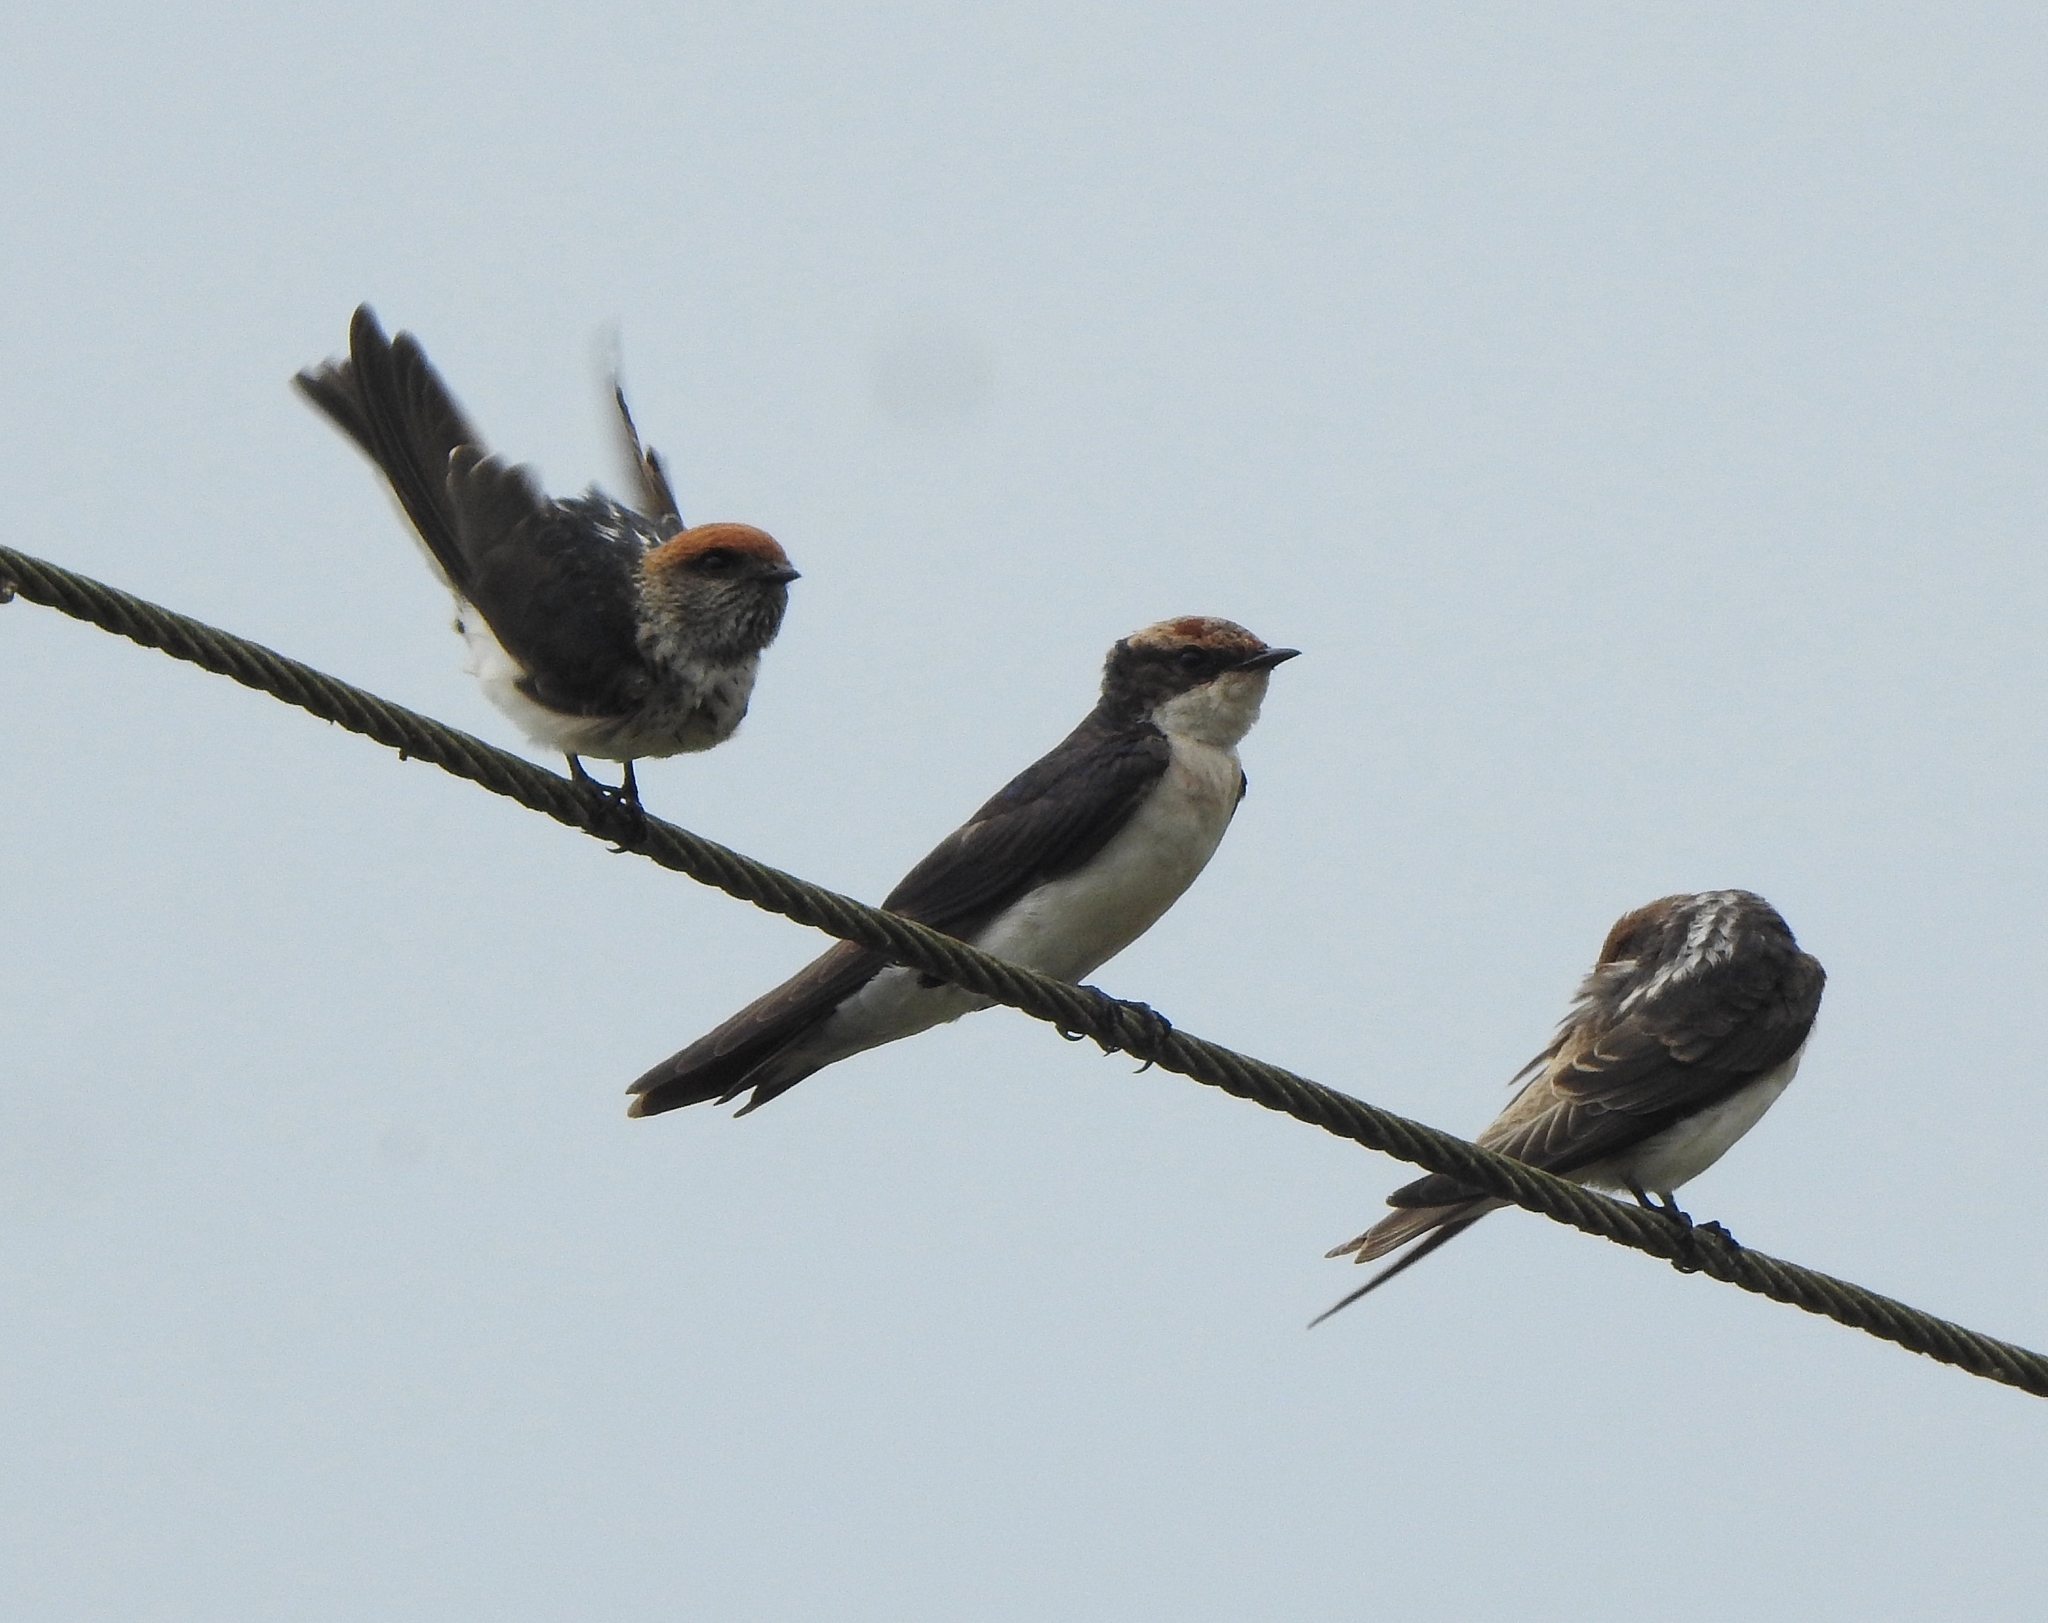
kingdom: Animalia
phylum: Chordata
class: Aves
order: Passeriformes
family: Hirundinidae
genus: Hirundo
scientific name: Hirundo smithii
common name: Wire-tailed swallow
